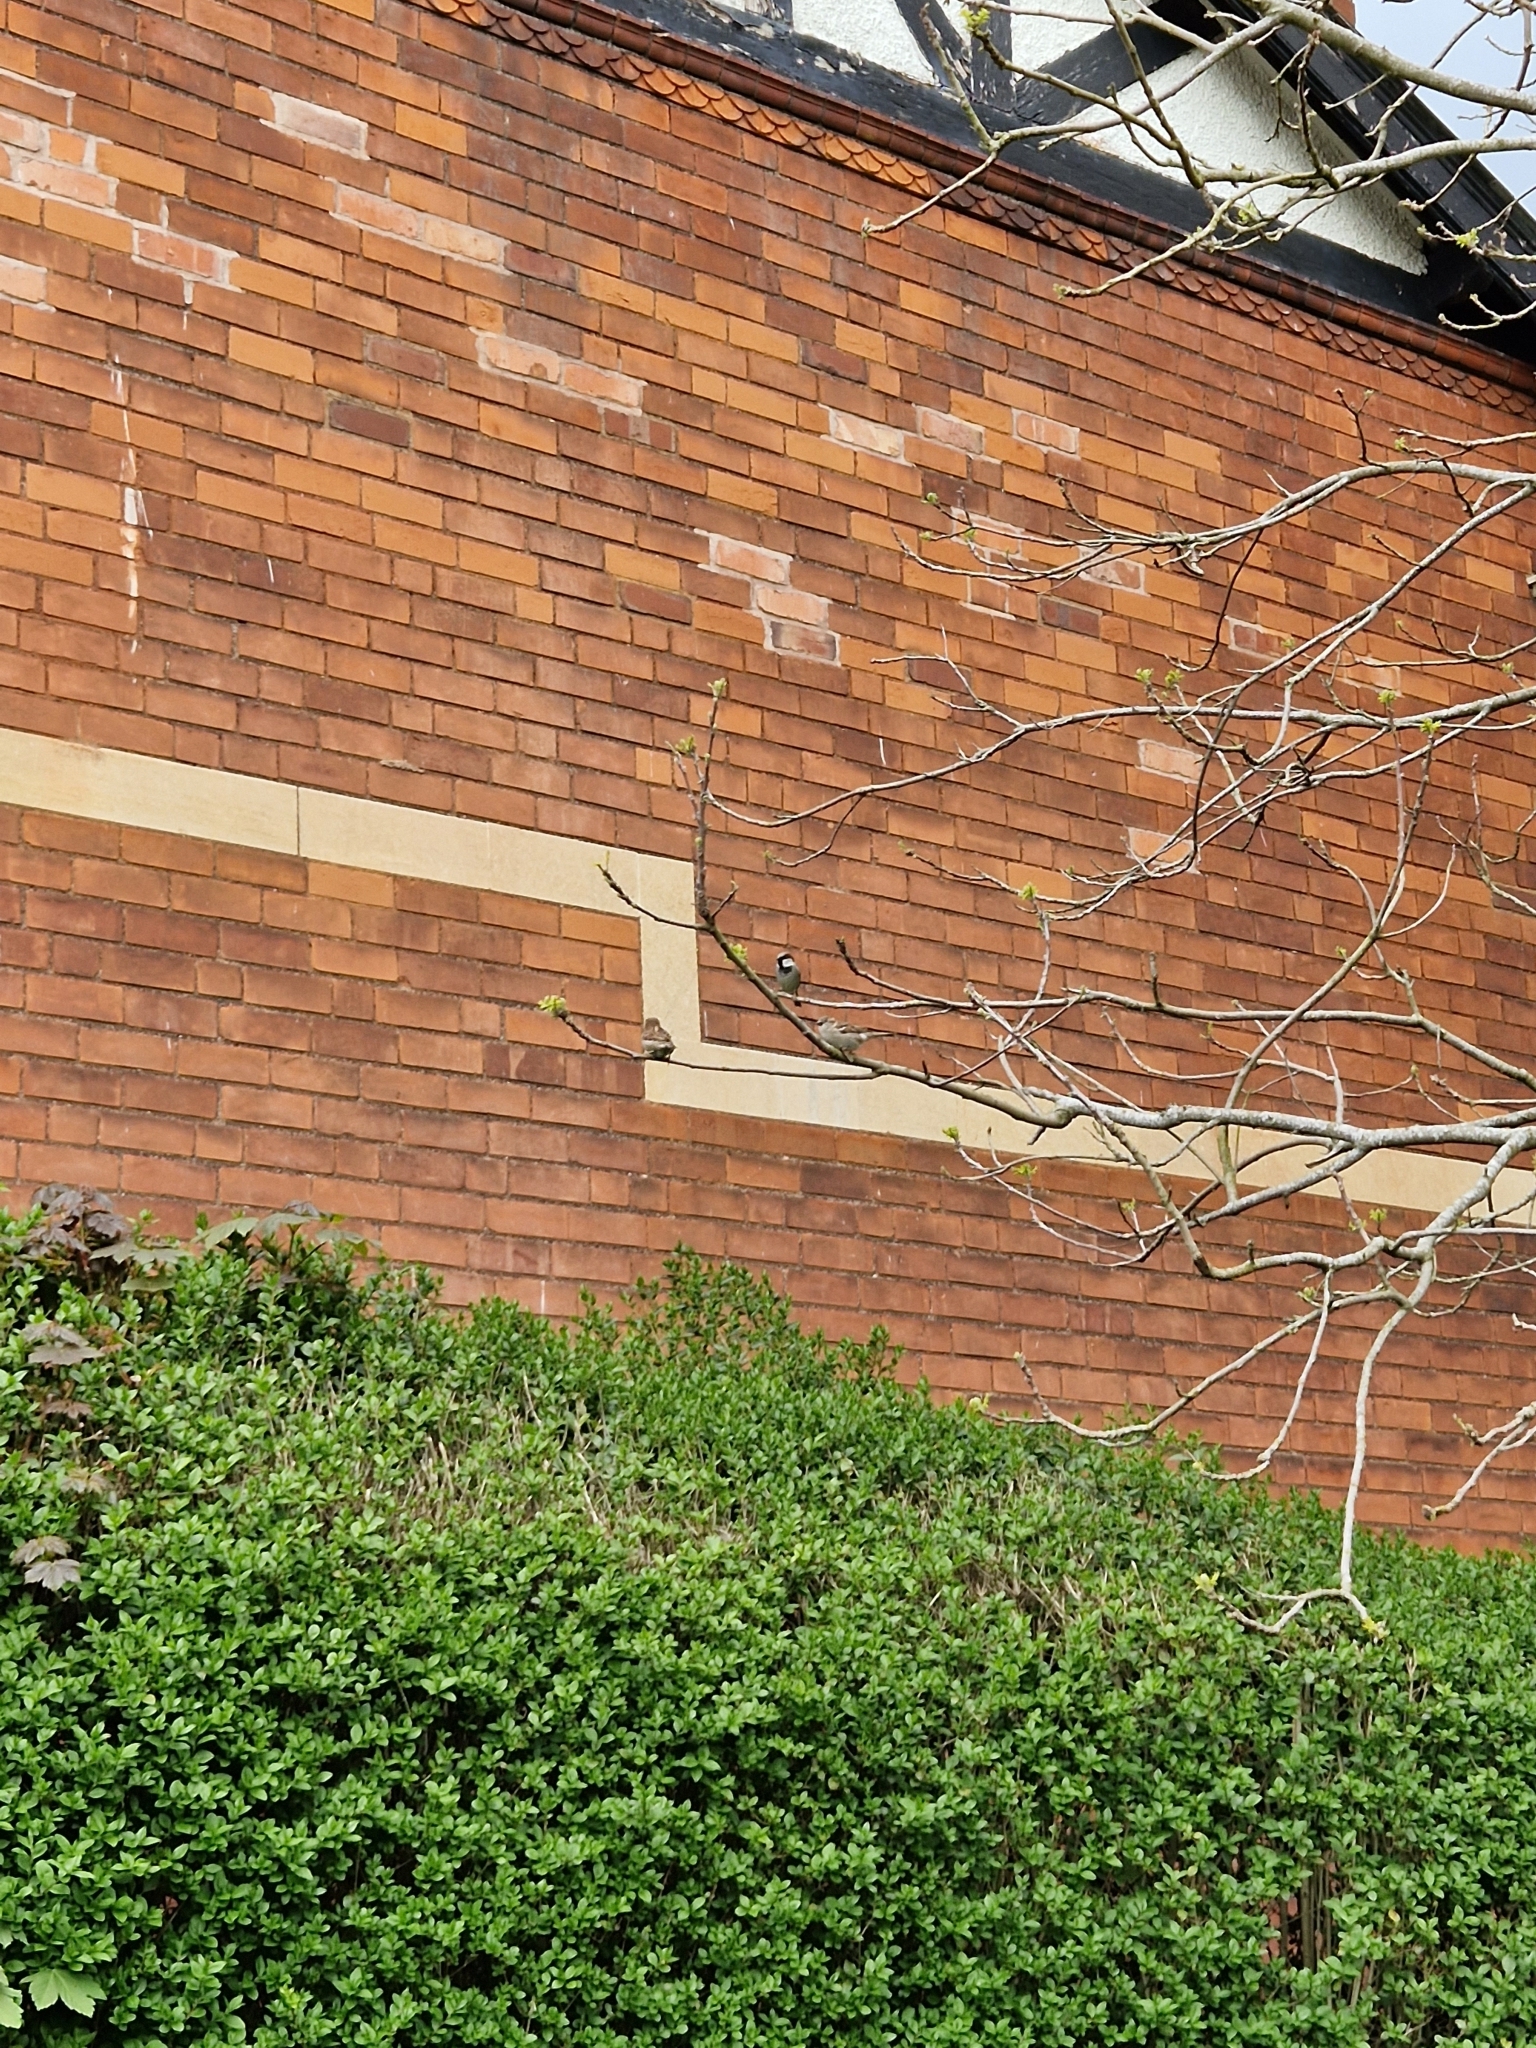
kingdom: Animalia
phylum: Chordata
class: Aves
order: Passeriformes
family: Passeridae
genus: Passer
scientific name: Passer domesticus
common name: House sparrow
